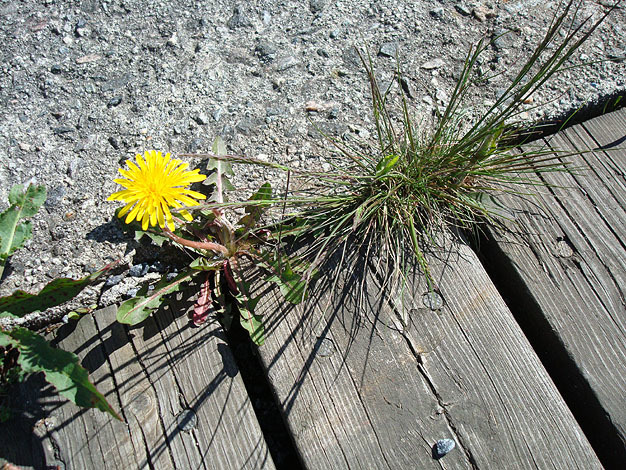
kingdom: Plantae
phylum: Tracheophyta
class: Magnoliopsida
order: Asterales
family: Asteraceae
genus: Taraxacum
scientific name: Taraxacum officinale
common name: Common dandelion
